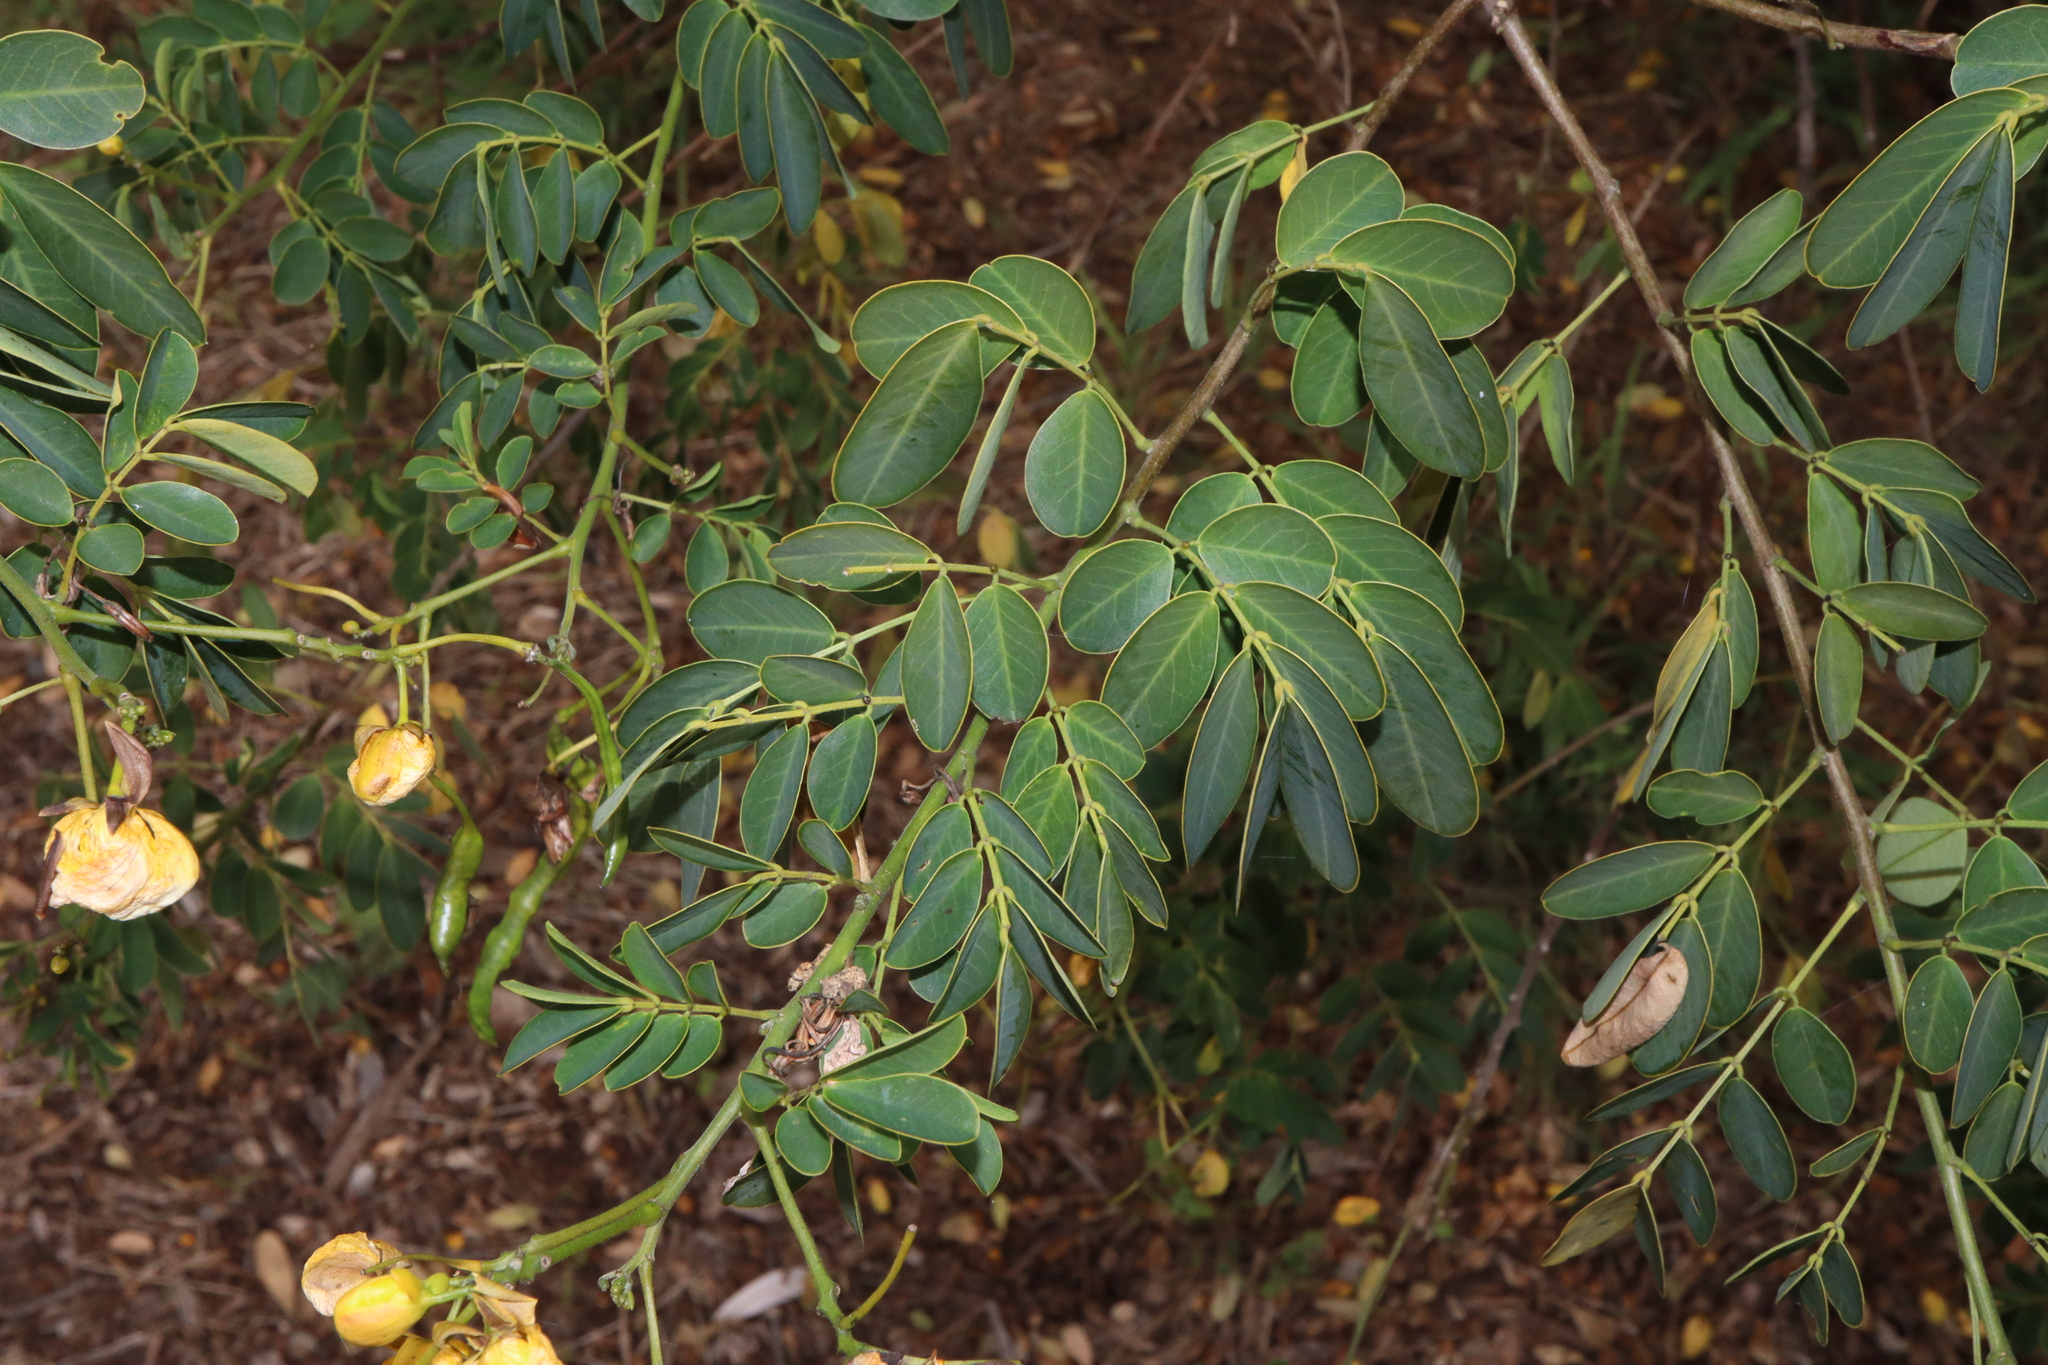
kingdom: Plantae
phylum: Tracheophyta
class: Magnoliopsida
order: Fabales
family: Fabaceae
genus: Senna
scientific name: Senna pendula
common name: Easter cassia
